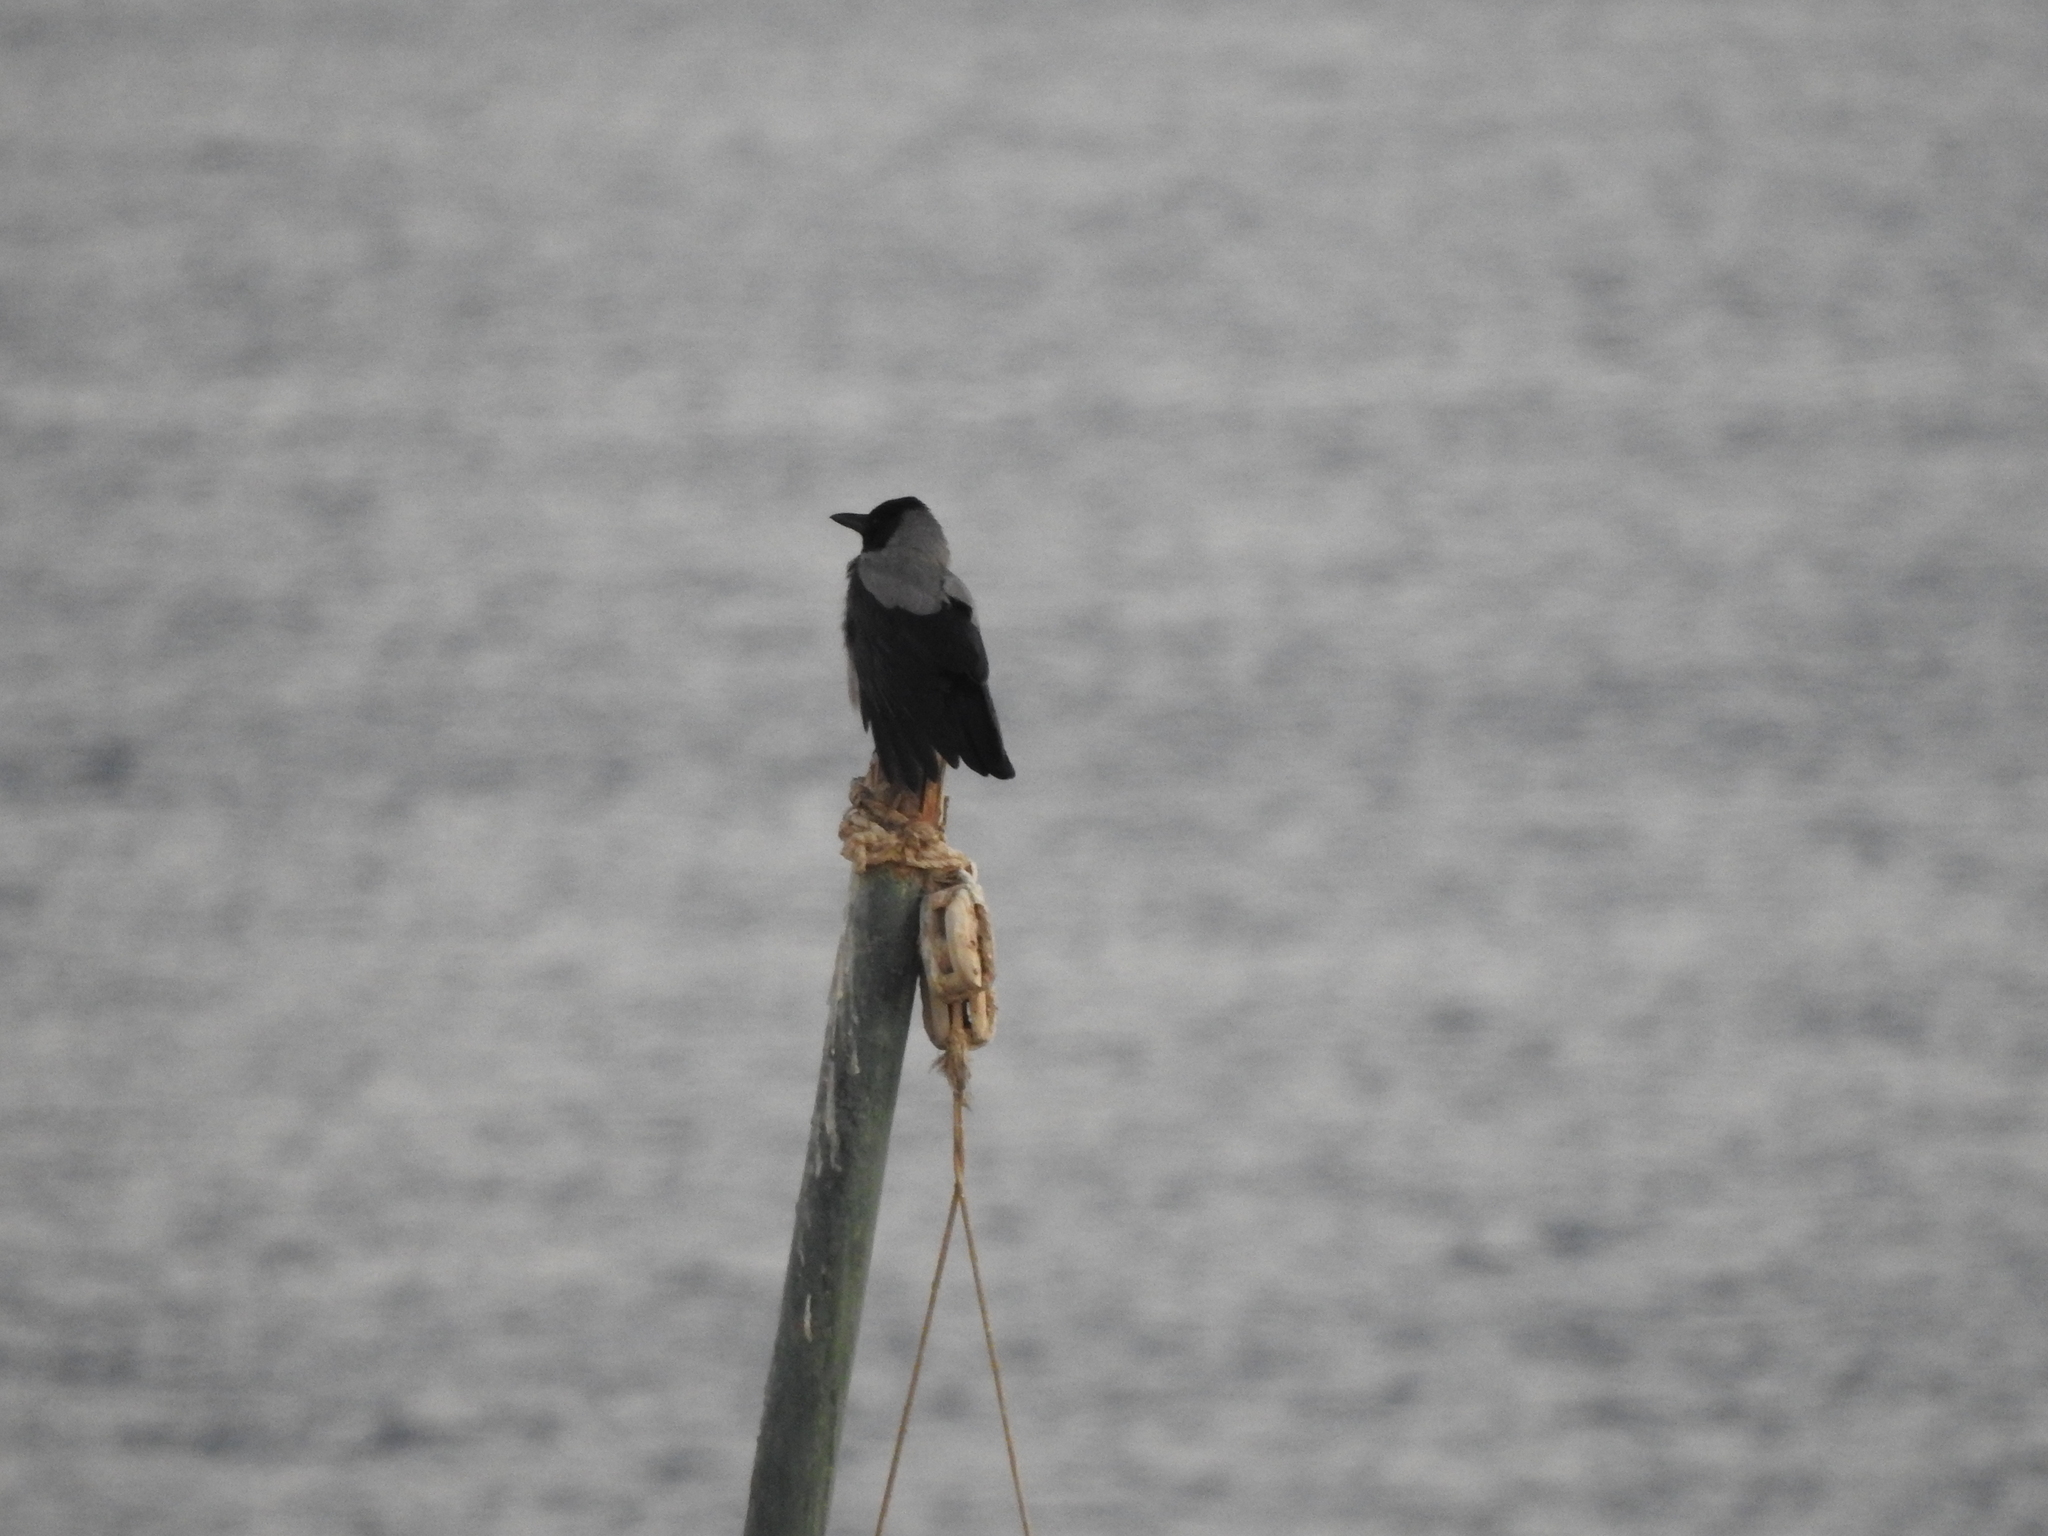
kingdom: Animalia
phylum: Chordata
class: Aves
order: Passeriformes
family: Corvidae
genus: Corvus
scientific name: Corvus cornix
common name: Hooded crow
